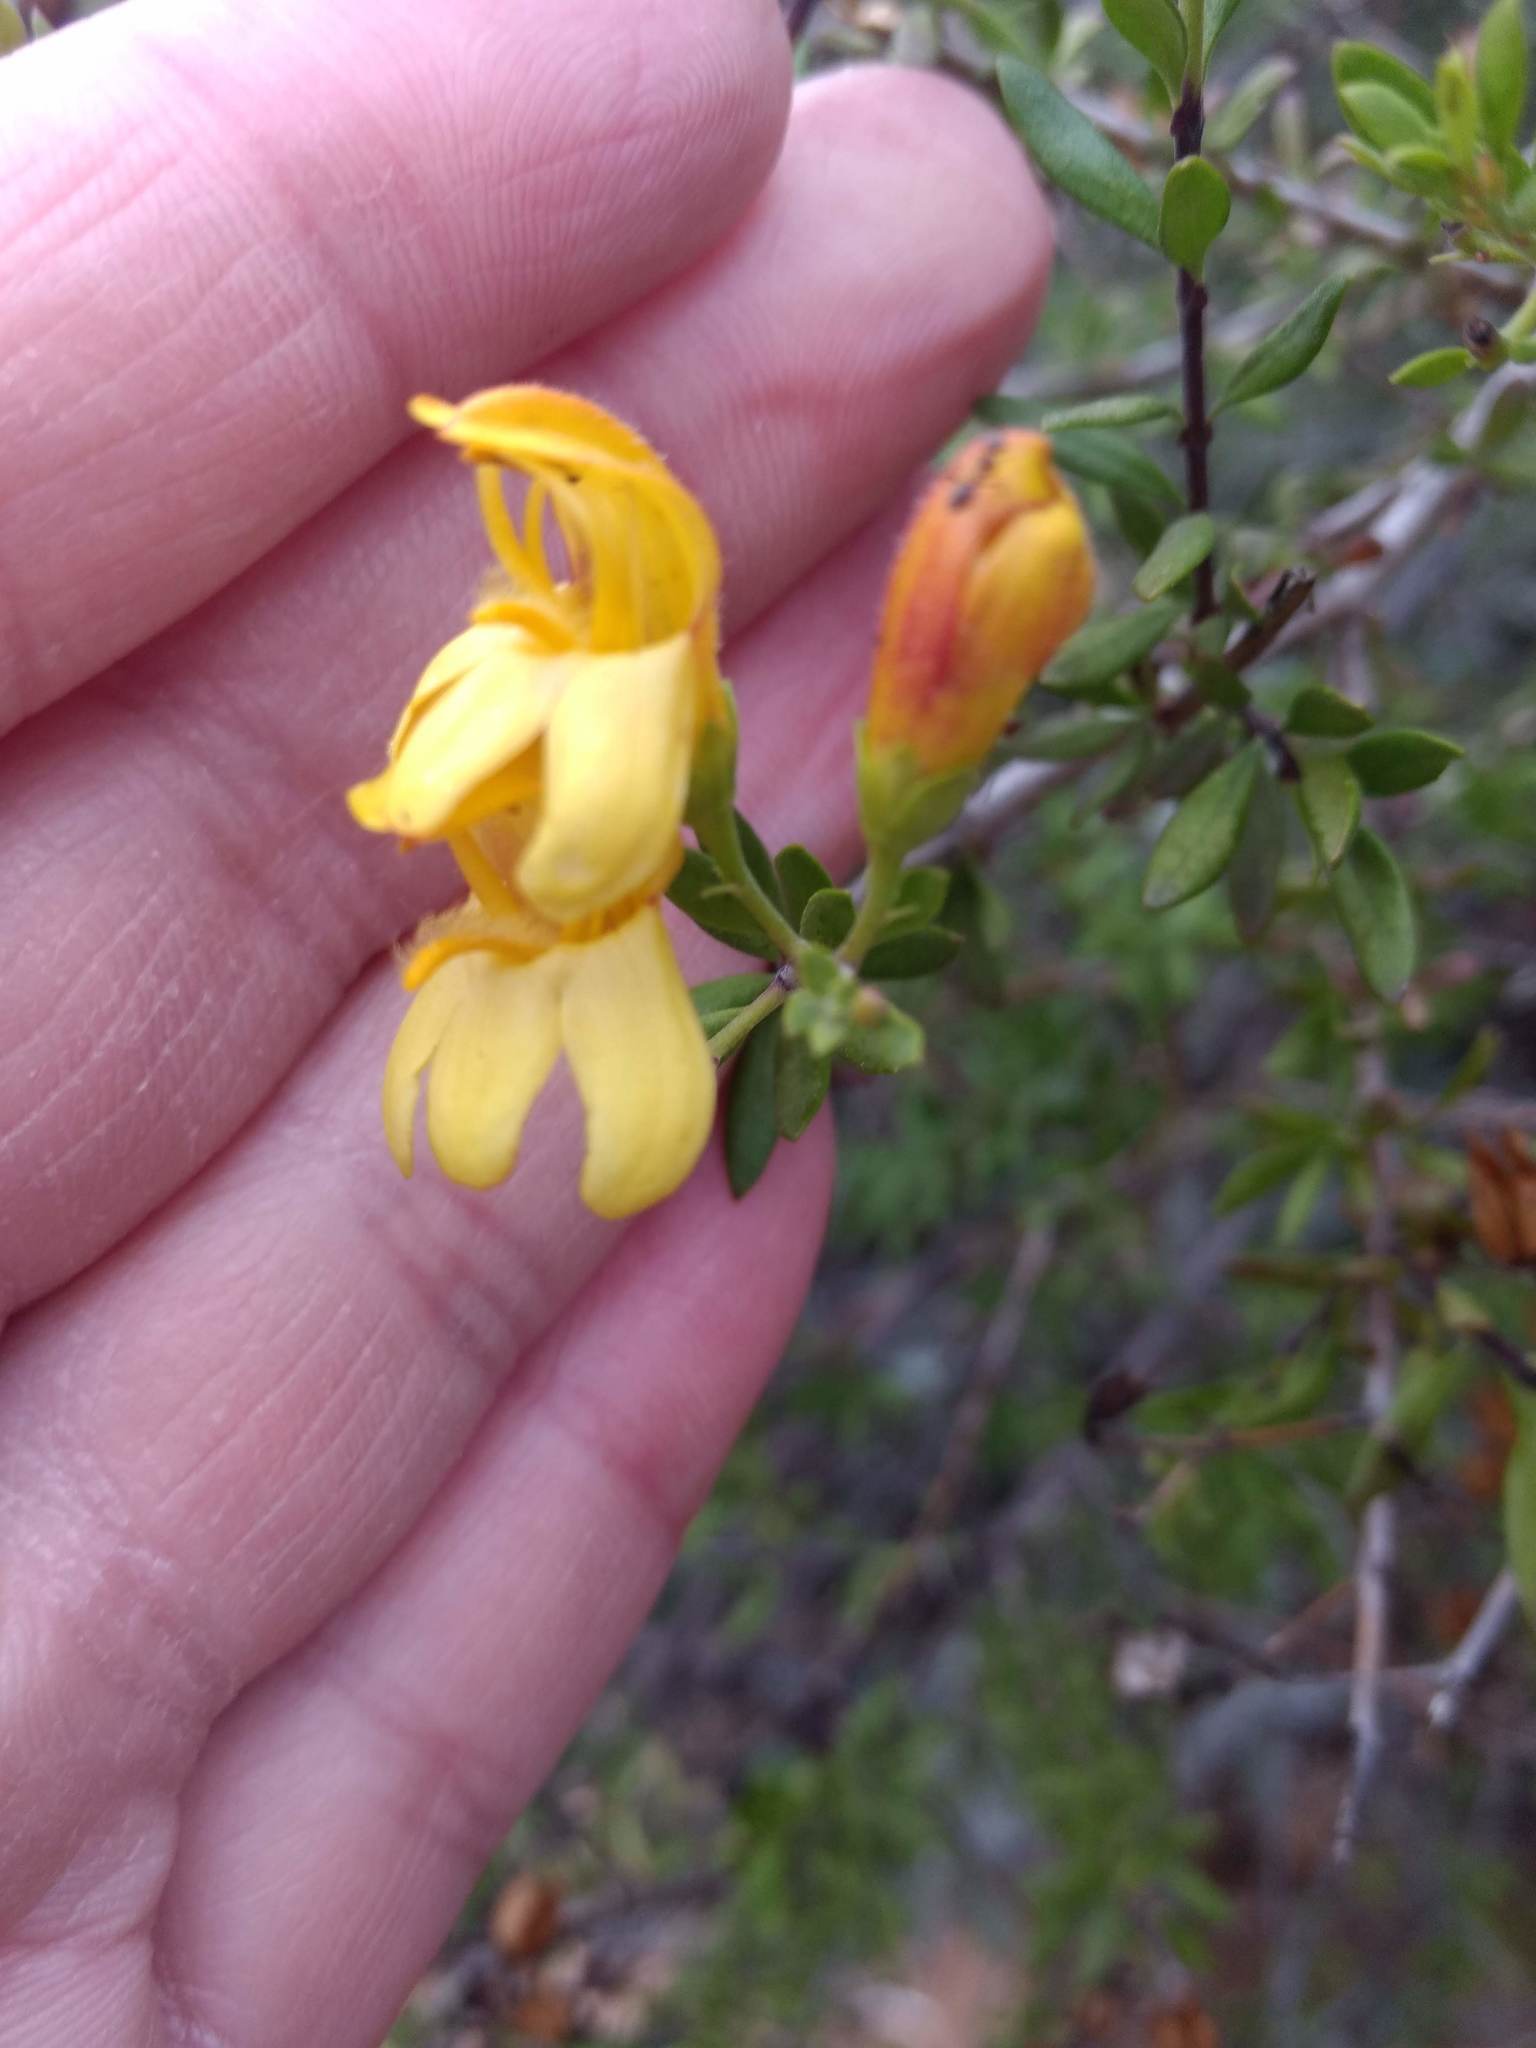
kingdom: Plantae
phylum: Tracheophyta
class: Magnoliopsida
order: Lamiales
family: Plantaginaceae
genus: Keckiella
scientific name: Keckiella antirrhinoides
